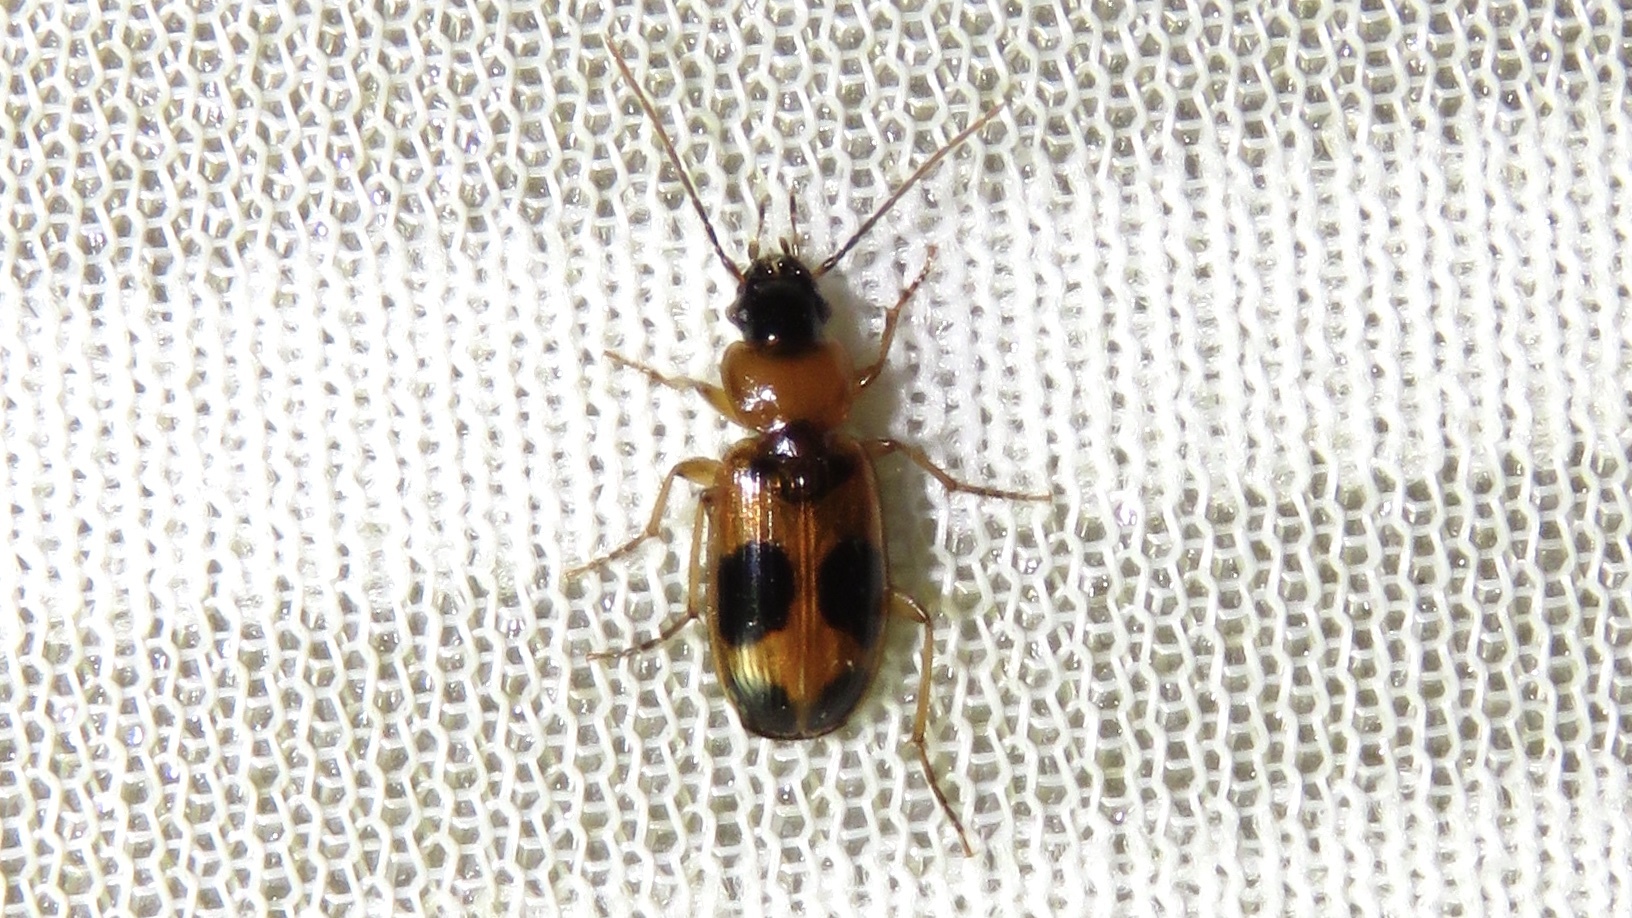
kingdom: Animalia
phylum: Arthropoda
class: Insecta
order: Coleoptera
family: Carabidae
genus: Badister
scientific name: Badister neopulchellus
